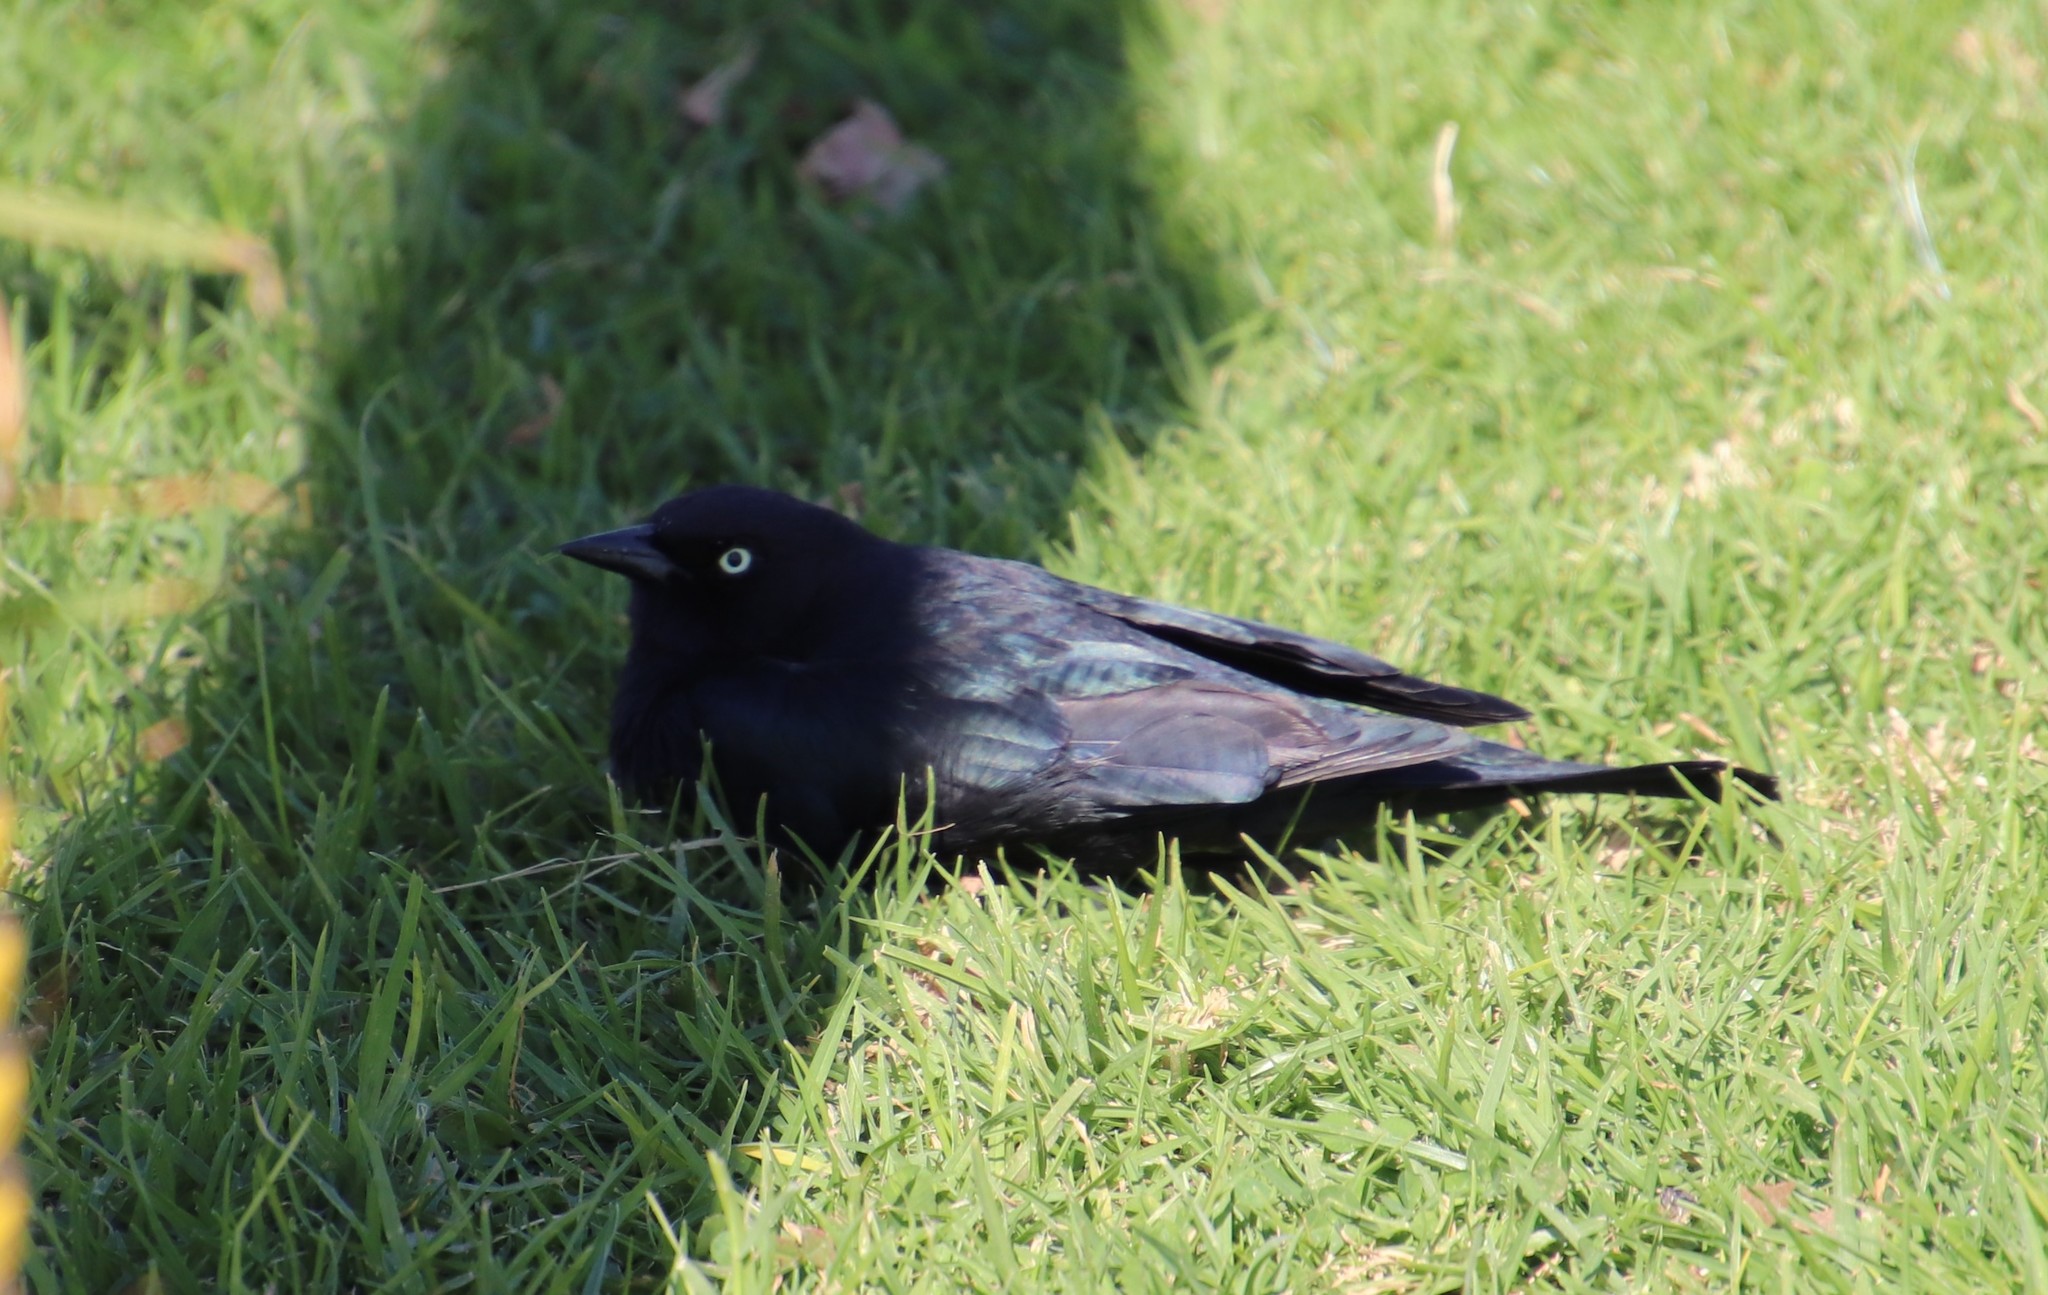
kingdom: Animalia
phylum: Chordata
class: Aves
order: Passeriformes
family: Icteridae
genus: Euphagus
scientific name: Euphagus cyanocephalus
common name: Brewer's blackbird
